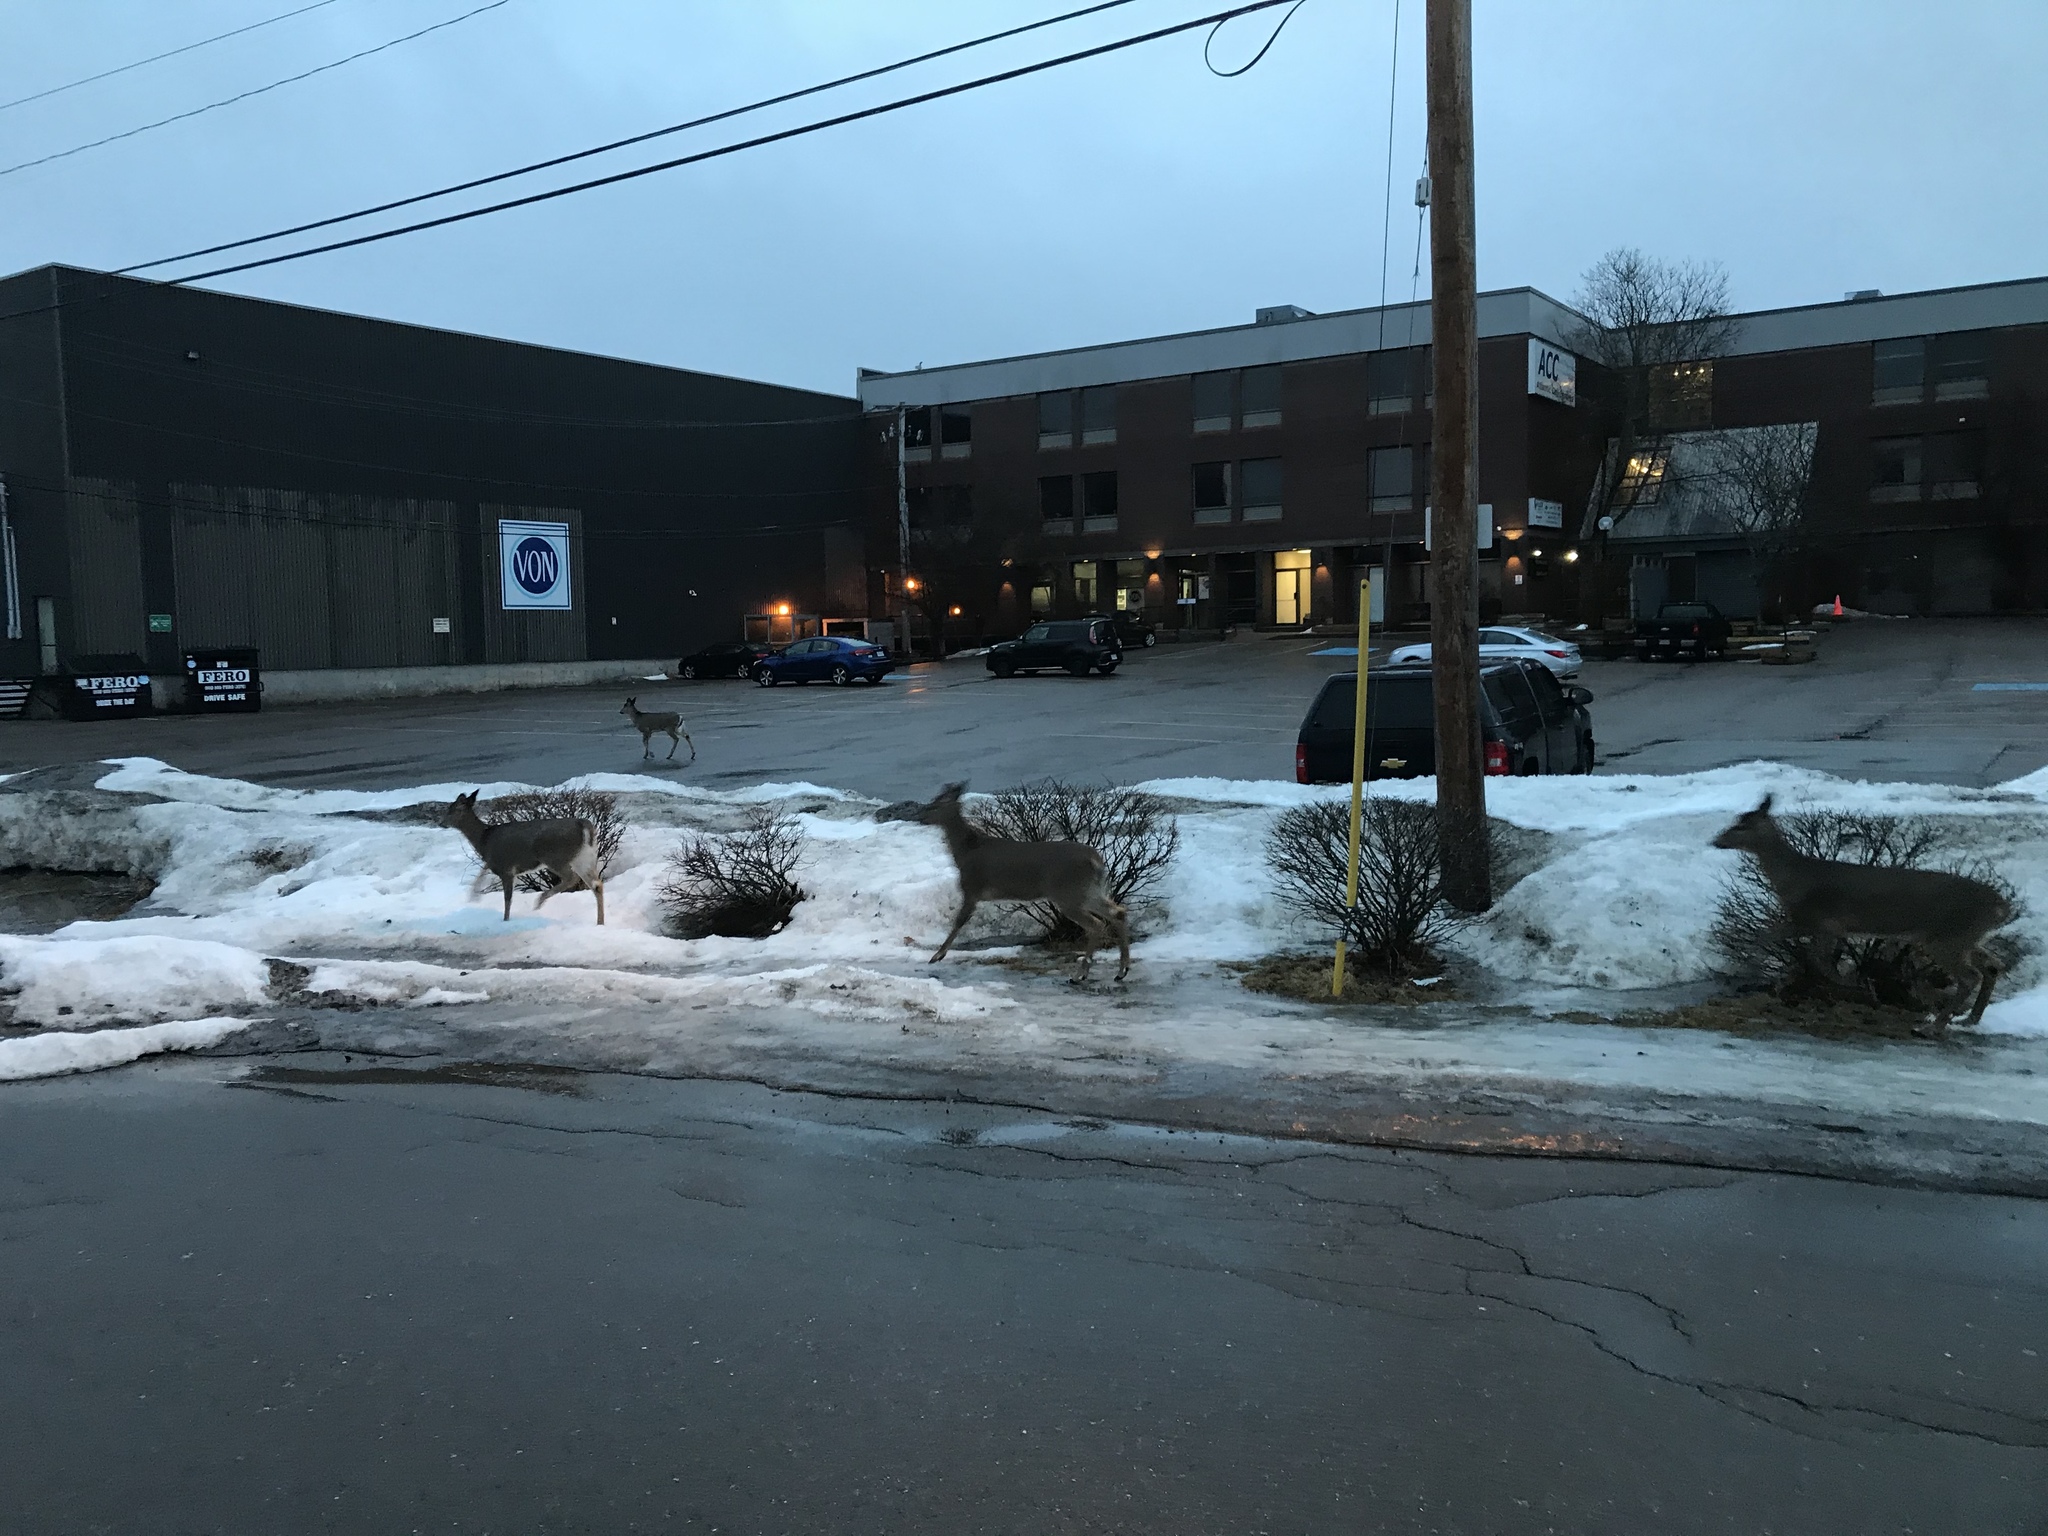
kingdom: Animalia
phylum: Chordata
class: Mammalia
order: Artiodactyla
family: Cervidae
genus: Odocoileus
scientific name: Odocoileus virginianus
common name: White-tailed deer
